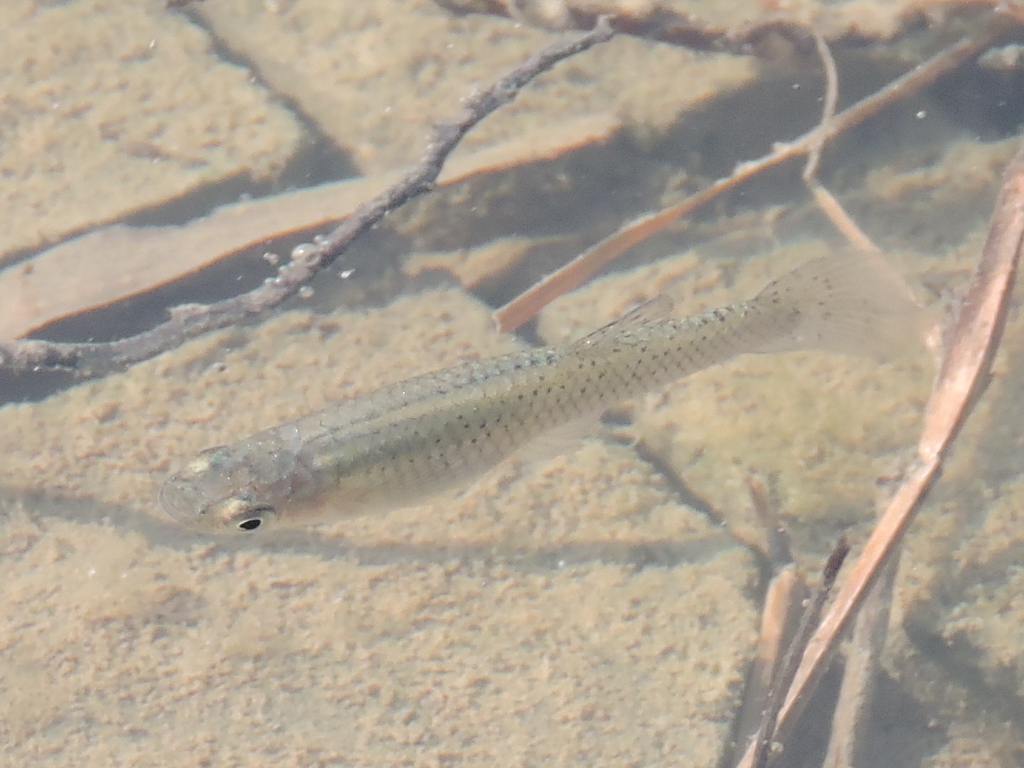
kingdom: Animalia
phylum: Chordata
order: Cyprinodontiformes
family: Poeciliidae
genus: Gambusia
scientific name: Gambusia affinis
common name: Mosquitofish
